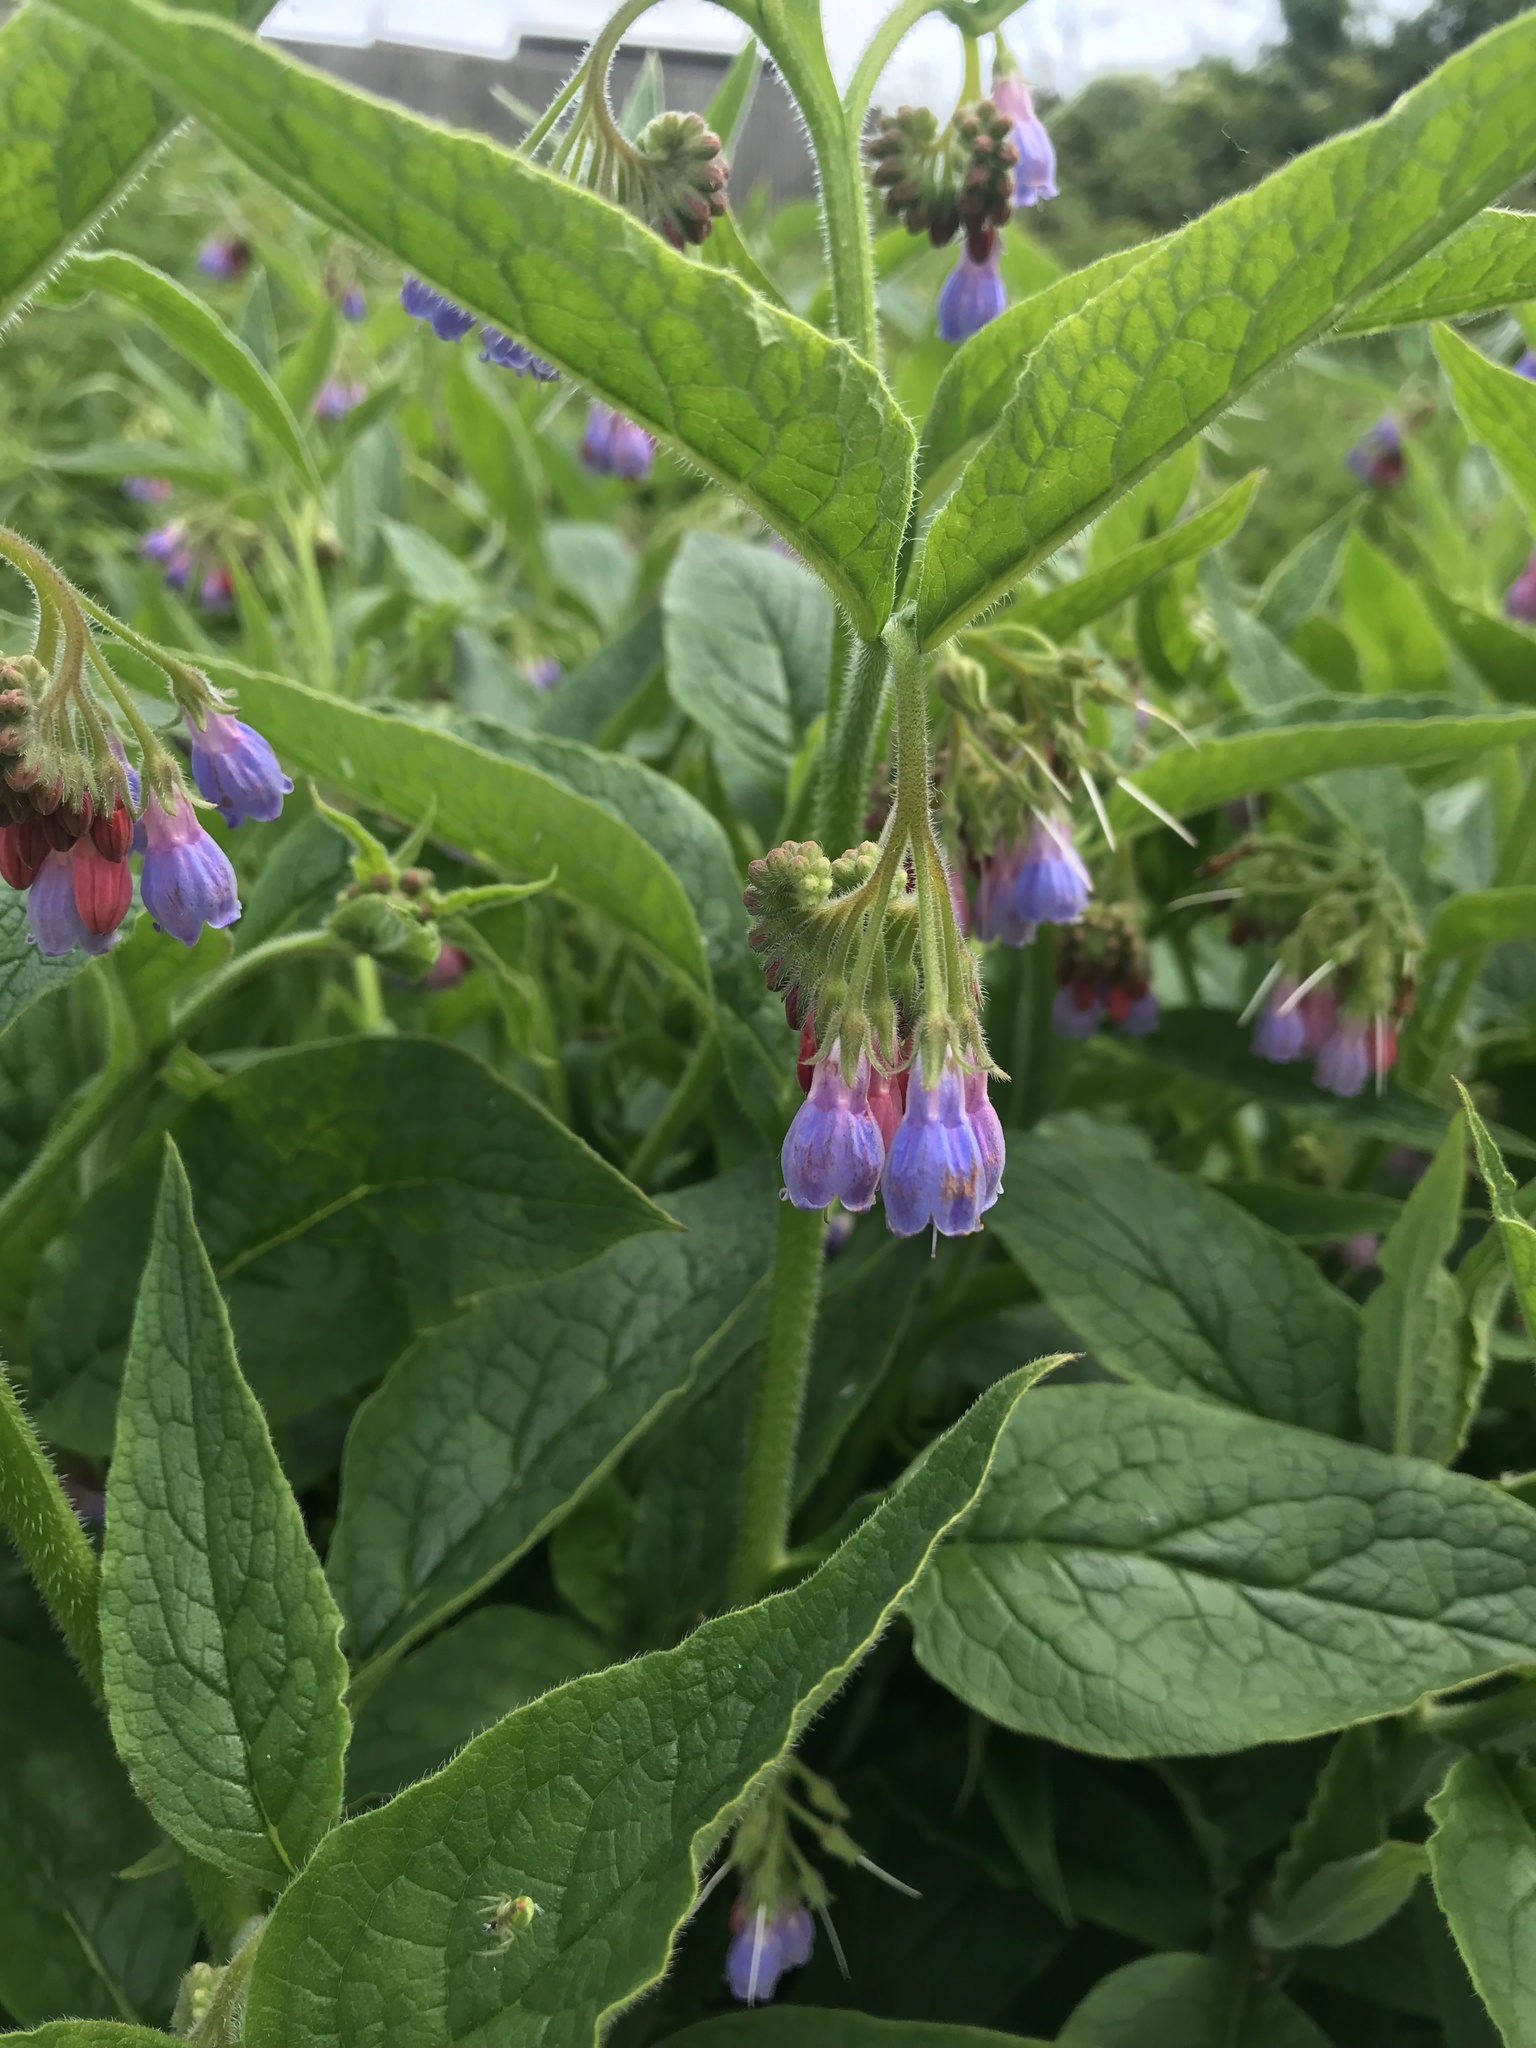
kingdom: Plantae
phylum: Tracheophyta
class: Magnoliopsida
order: Boraginales
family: Boraginaceae
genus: Symphytum
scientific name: Symphytum uplandicum
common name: Russian comfrey
